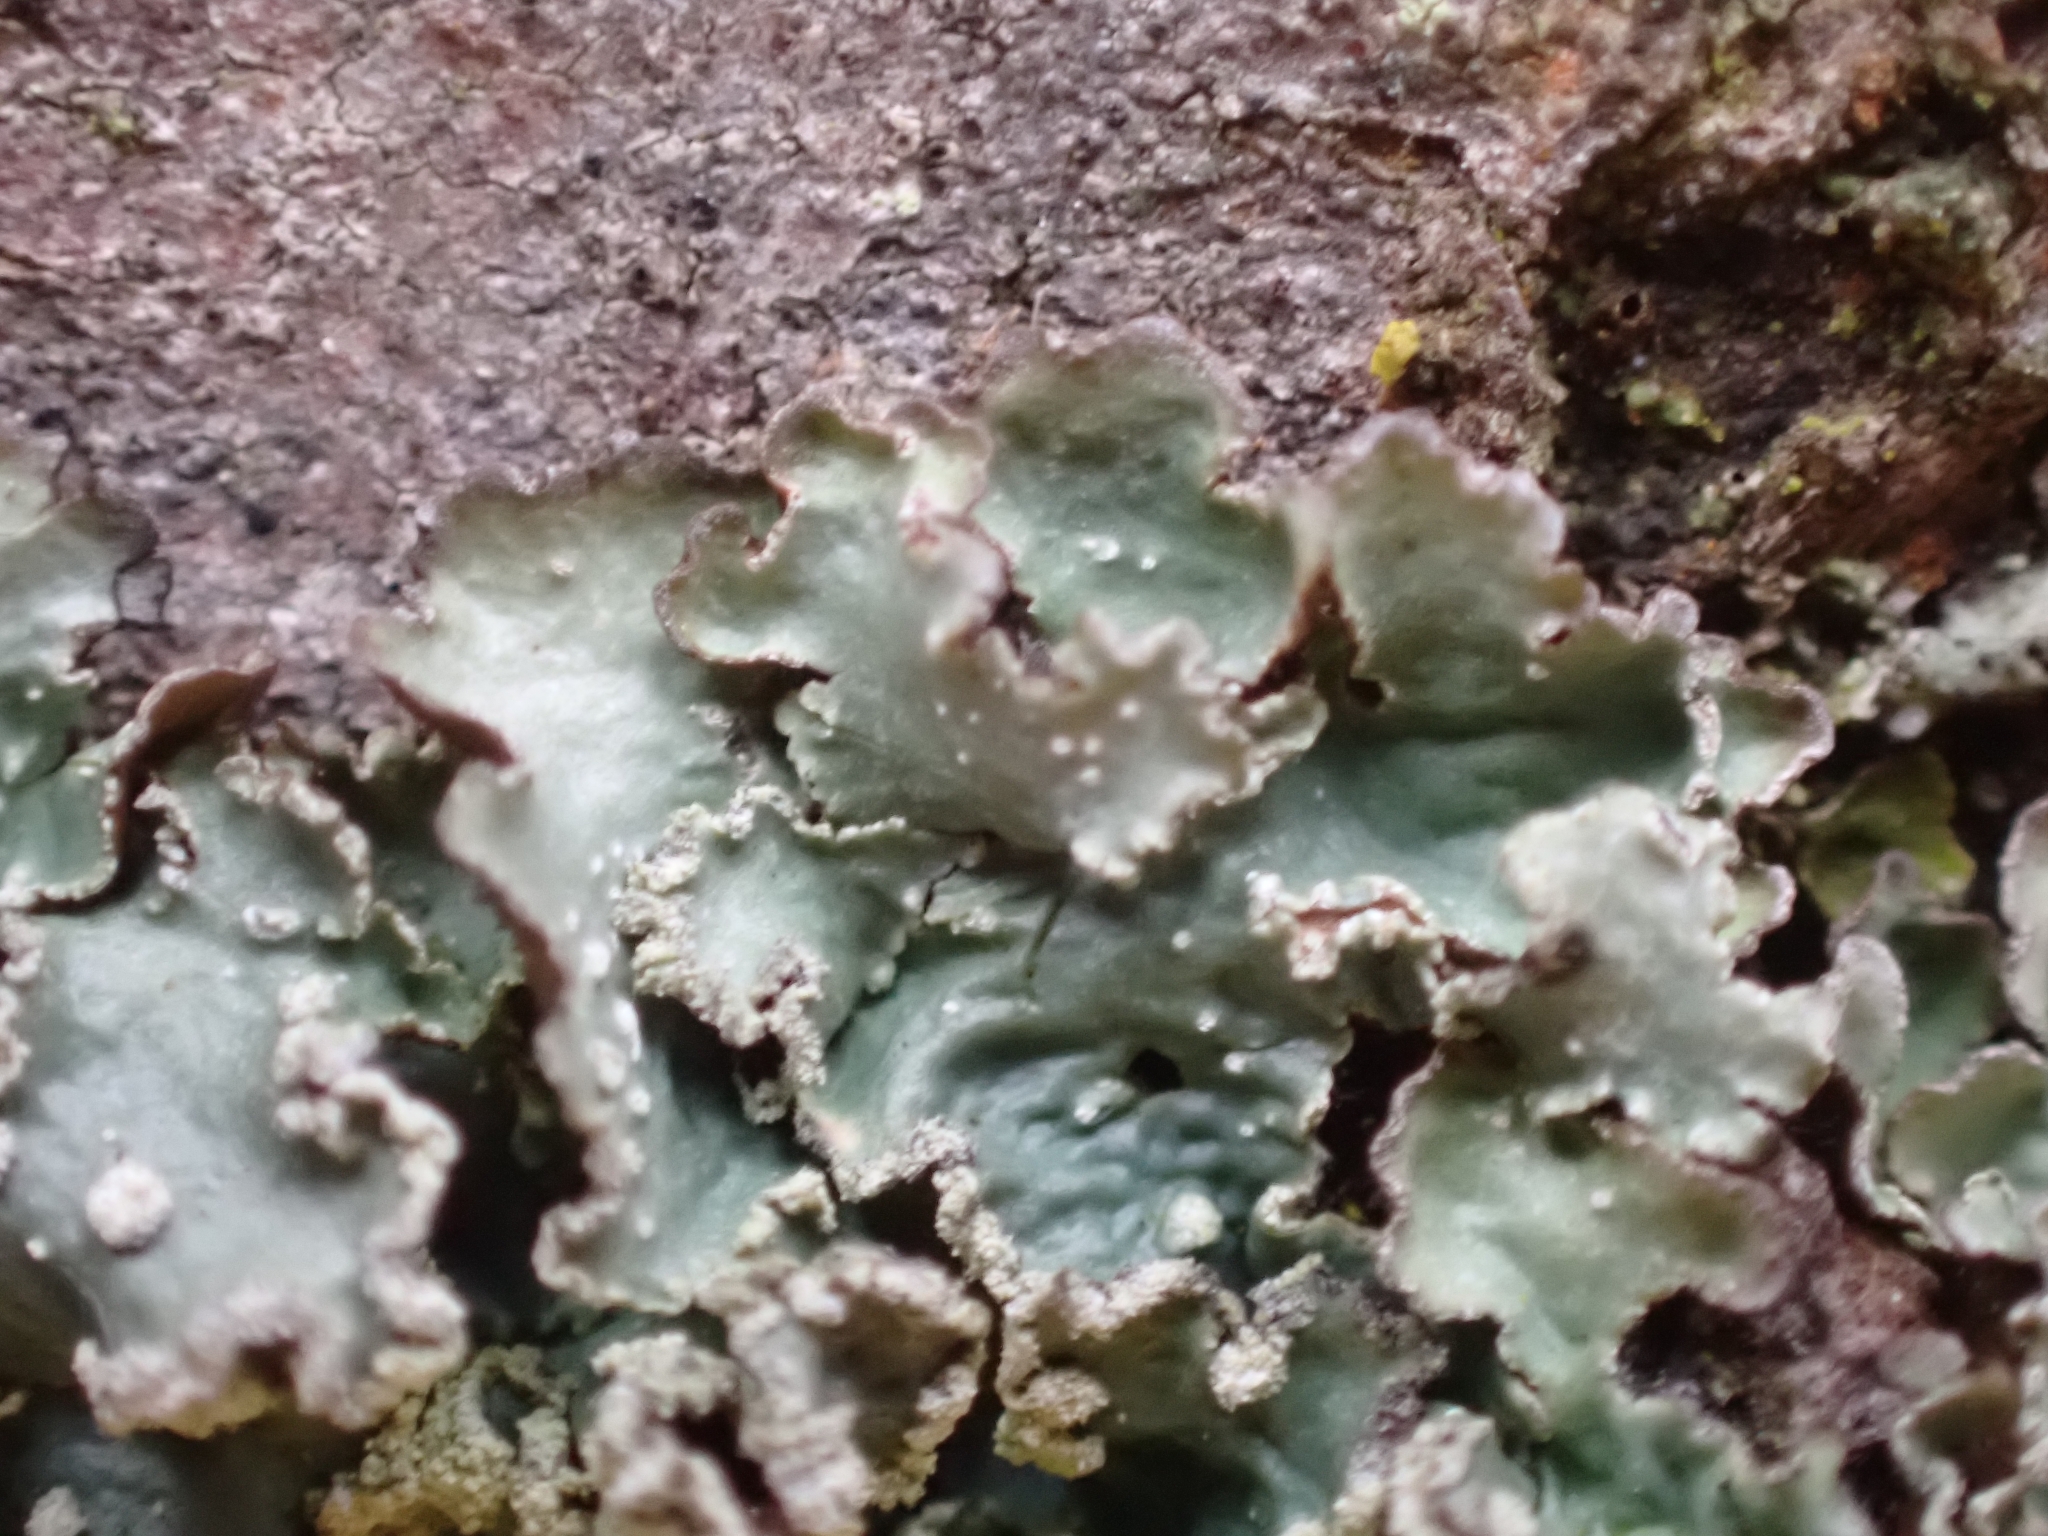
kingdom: Fungi
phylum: Ascomycota
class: Lecanoromycetes
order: Lecanorales
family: Parmeliaceae
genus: Punctelia
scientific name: Punctelia jeckeri
